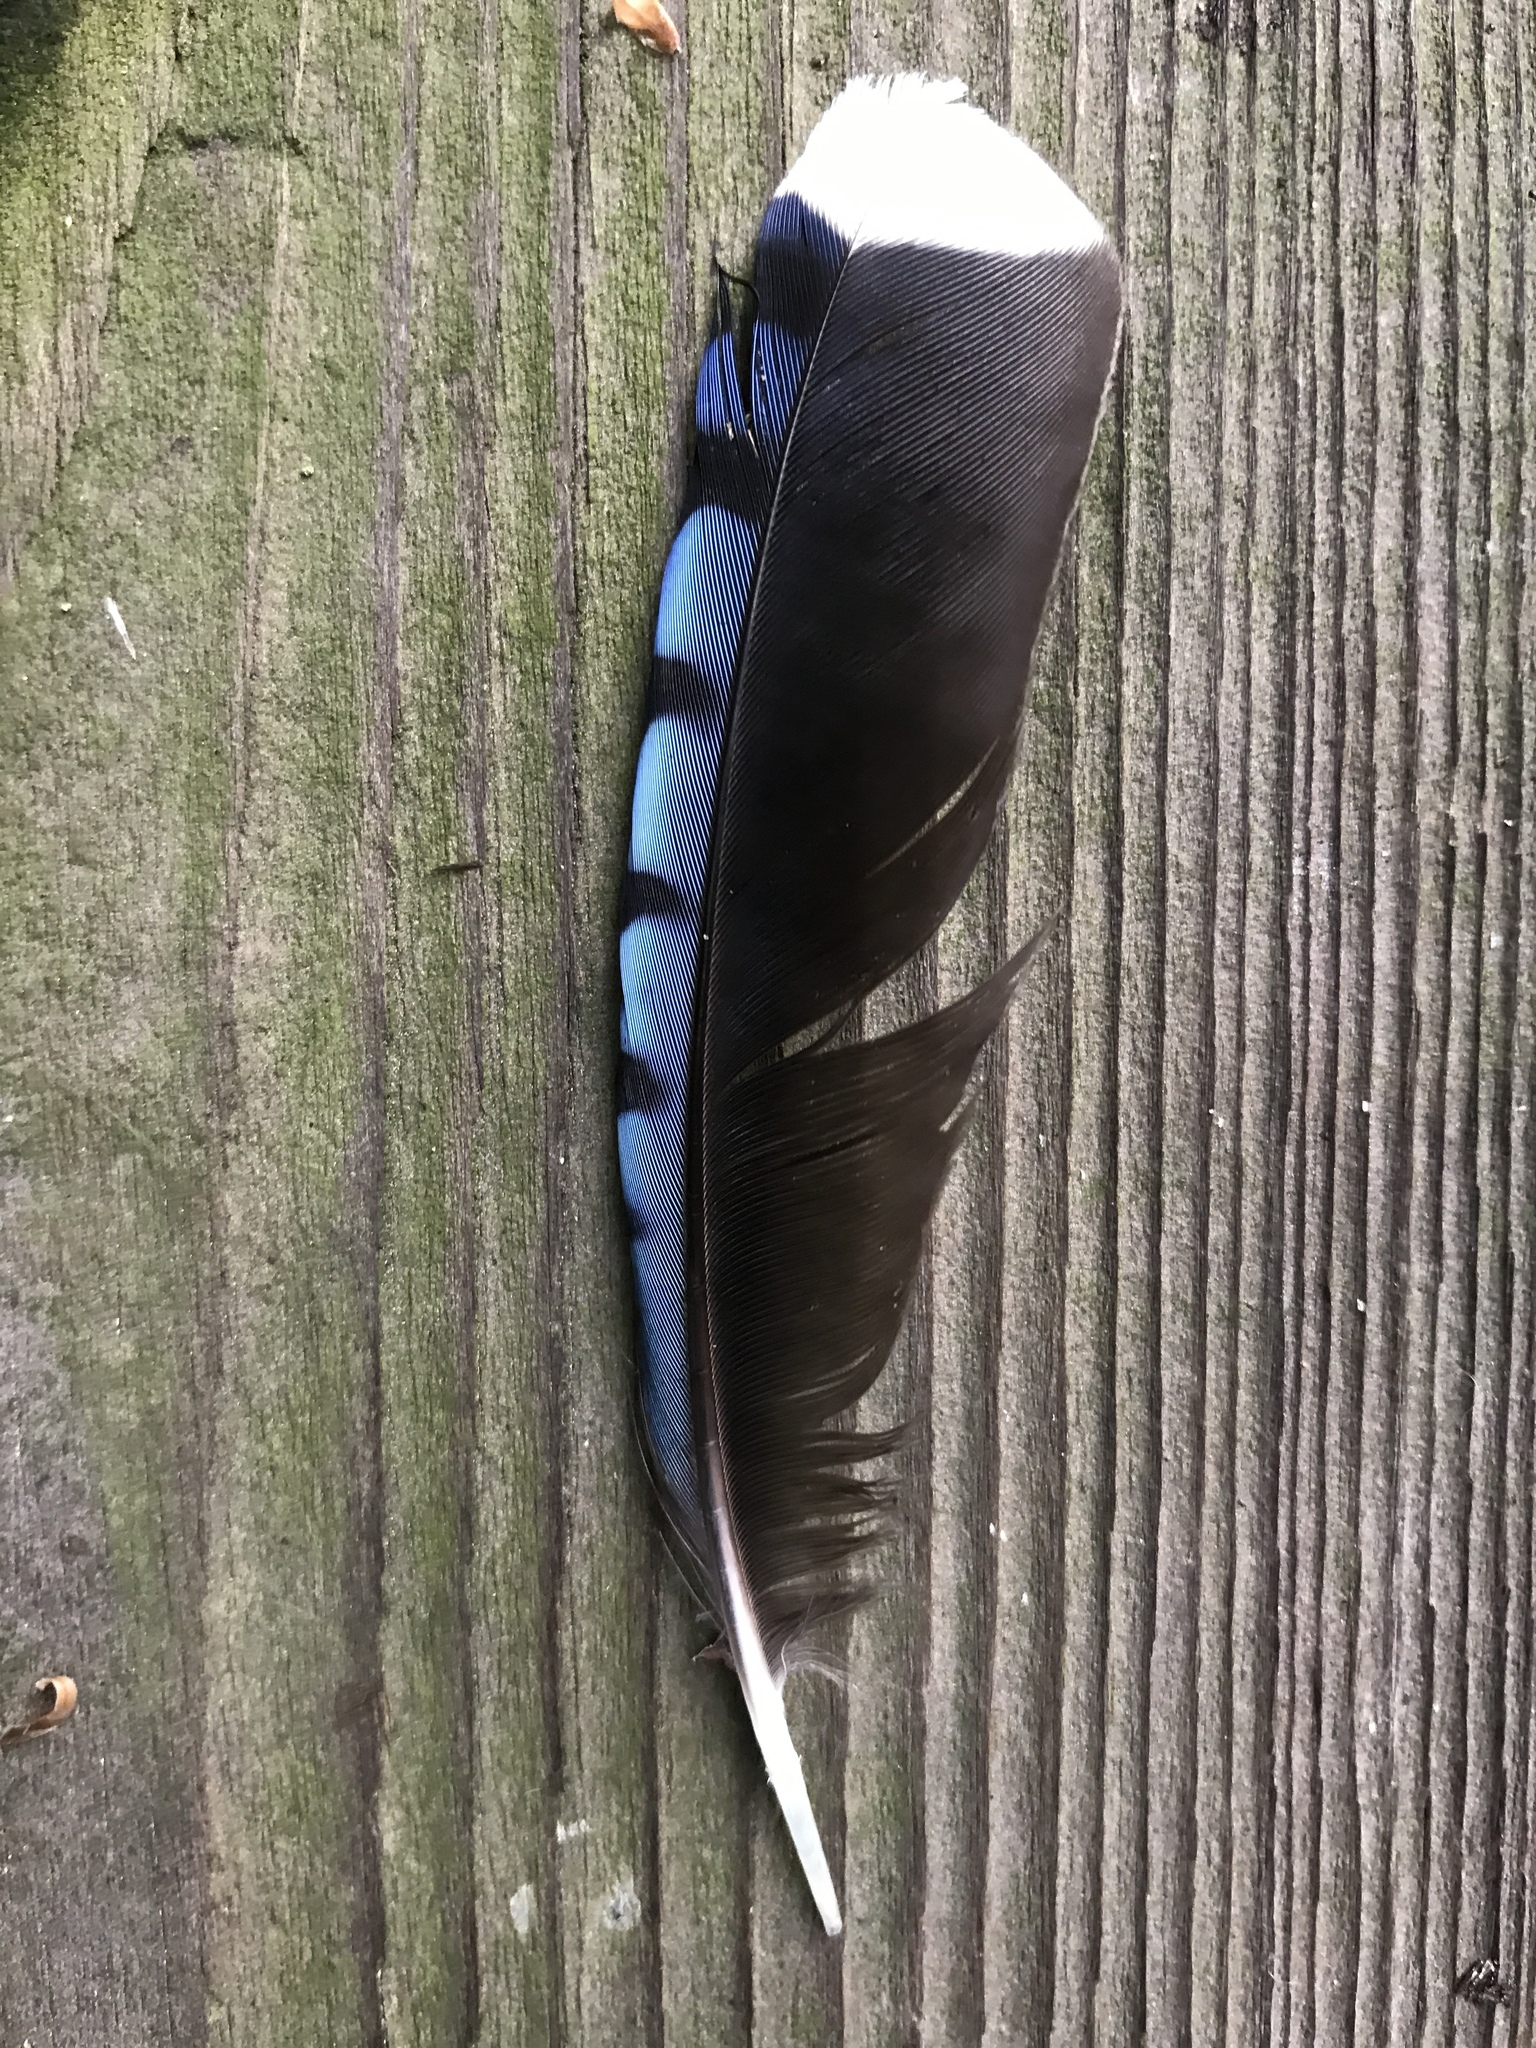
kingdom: Animalia
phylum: Chordata
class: Aves
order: Passeriformes
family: Corvidae
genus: Cyanocitta
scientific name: Cyanocitta cristata
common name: Blue jay
